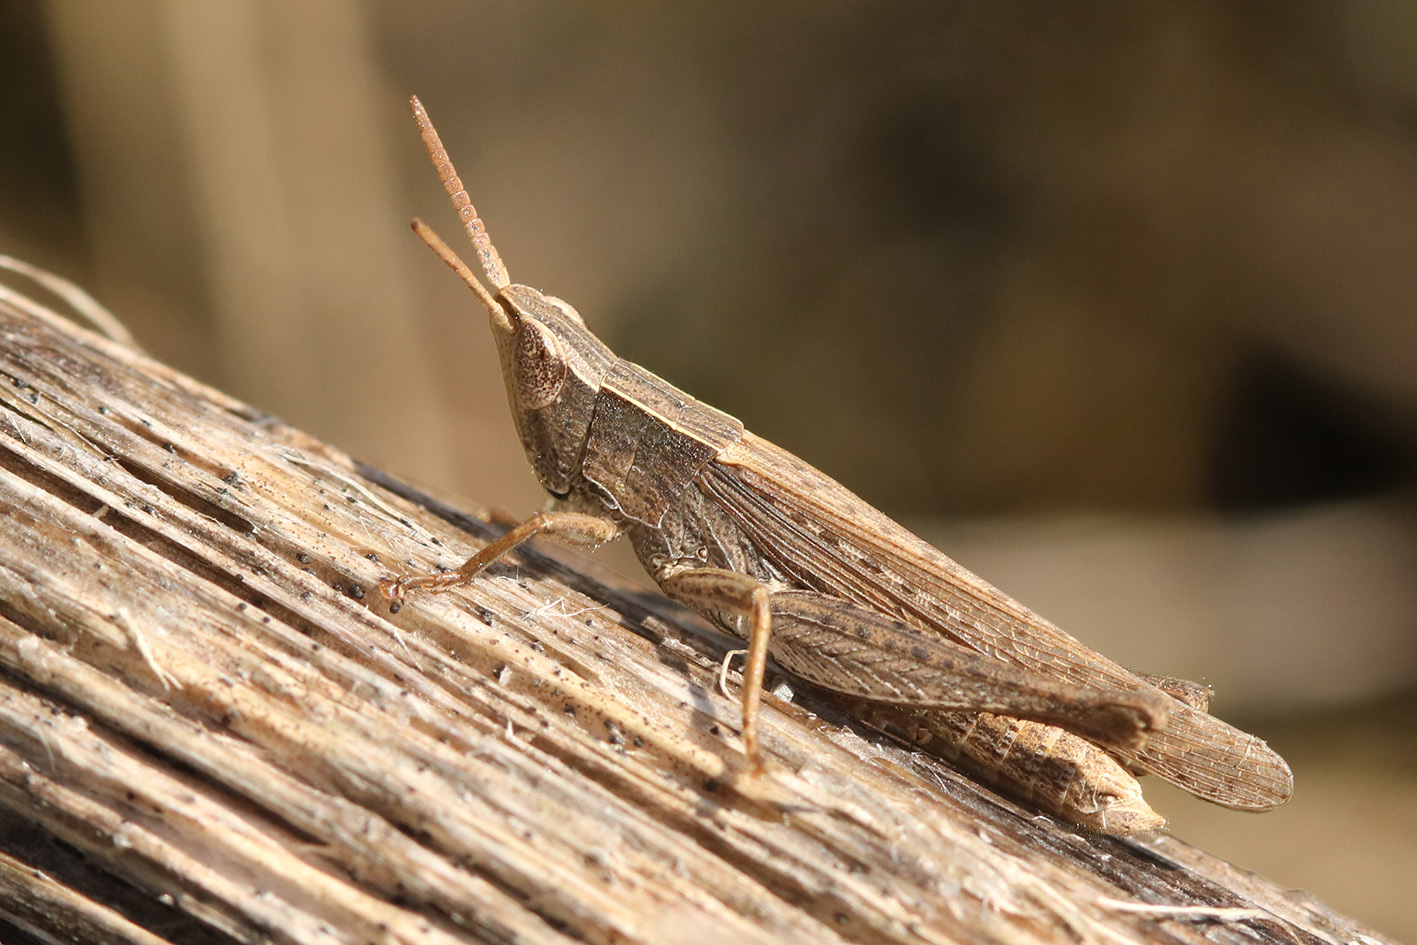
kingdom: Animalia
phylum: Arthropoda
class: Insecta
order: Orthoptera
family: Acrididae
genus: Laplatacris
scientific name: Laplatacris dispar
